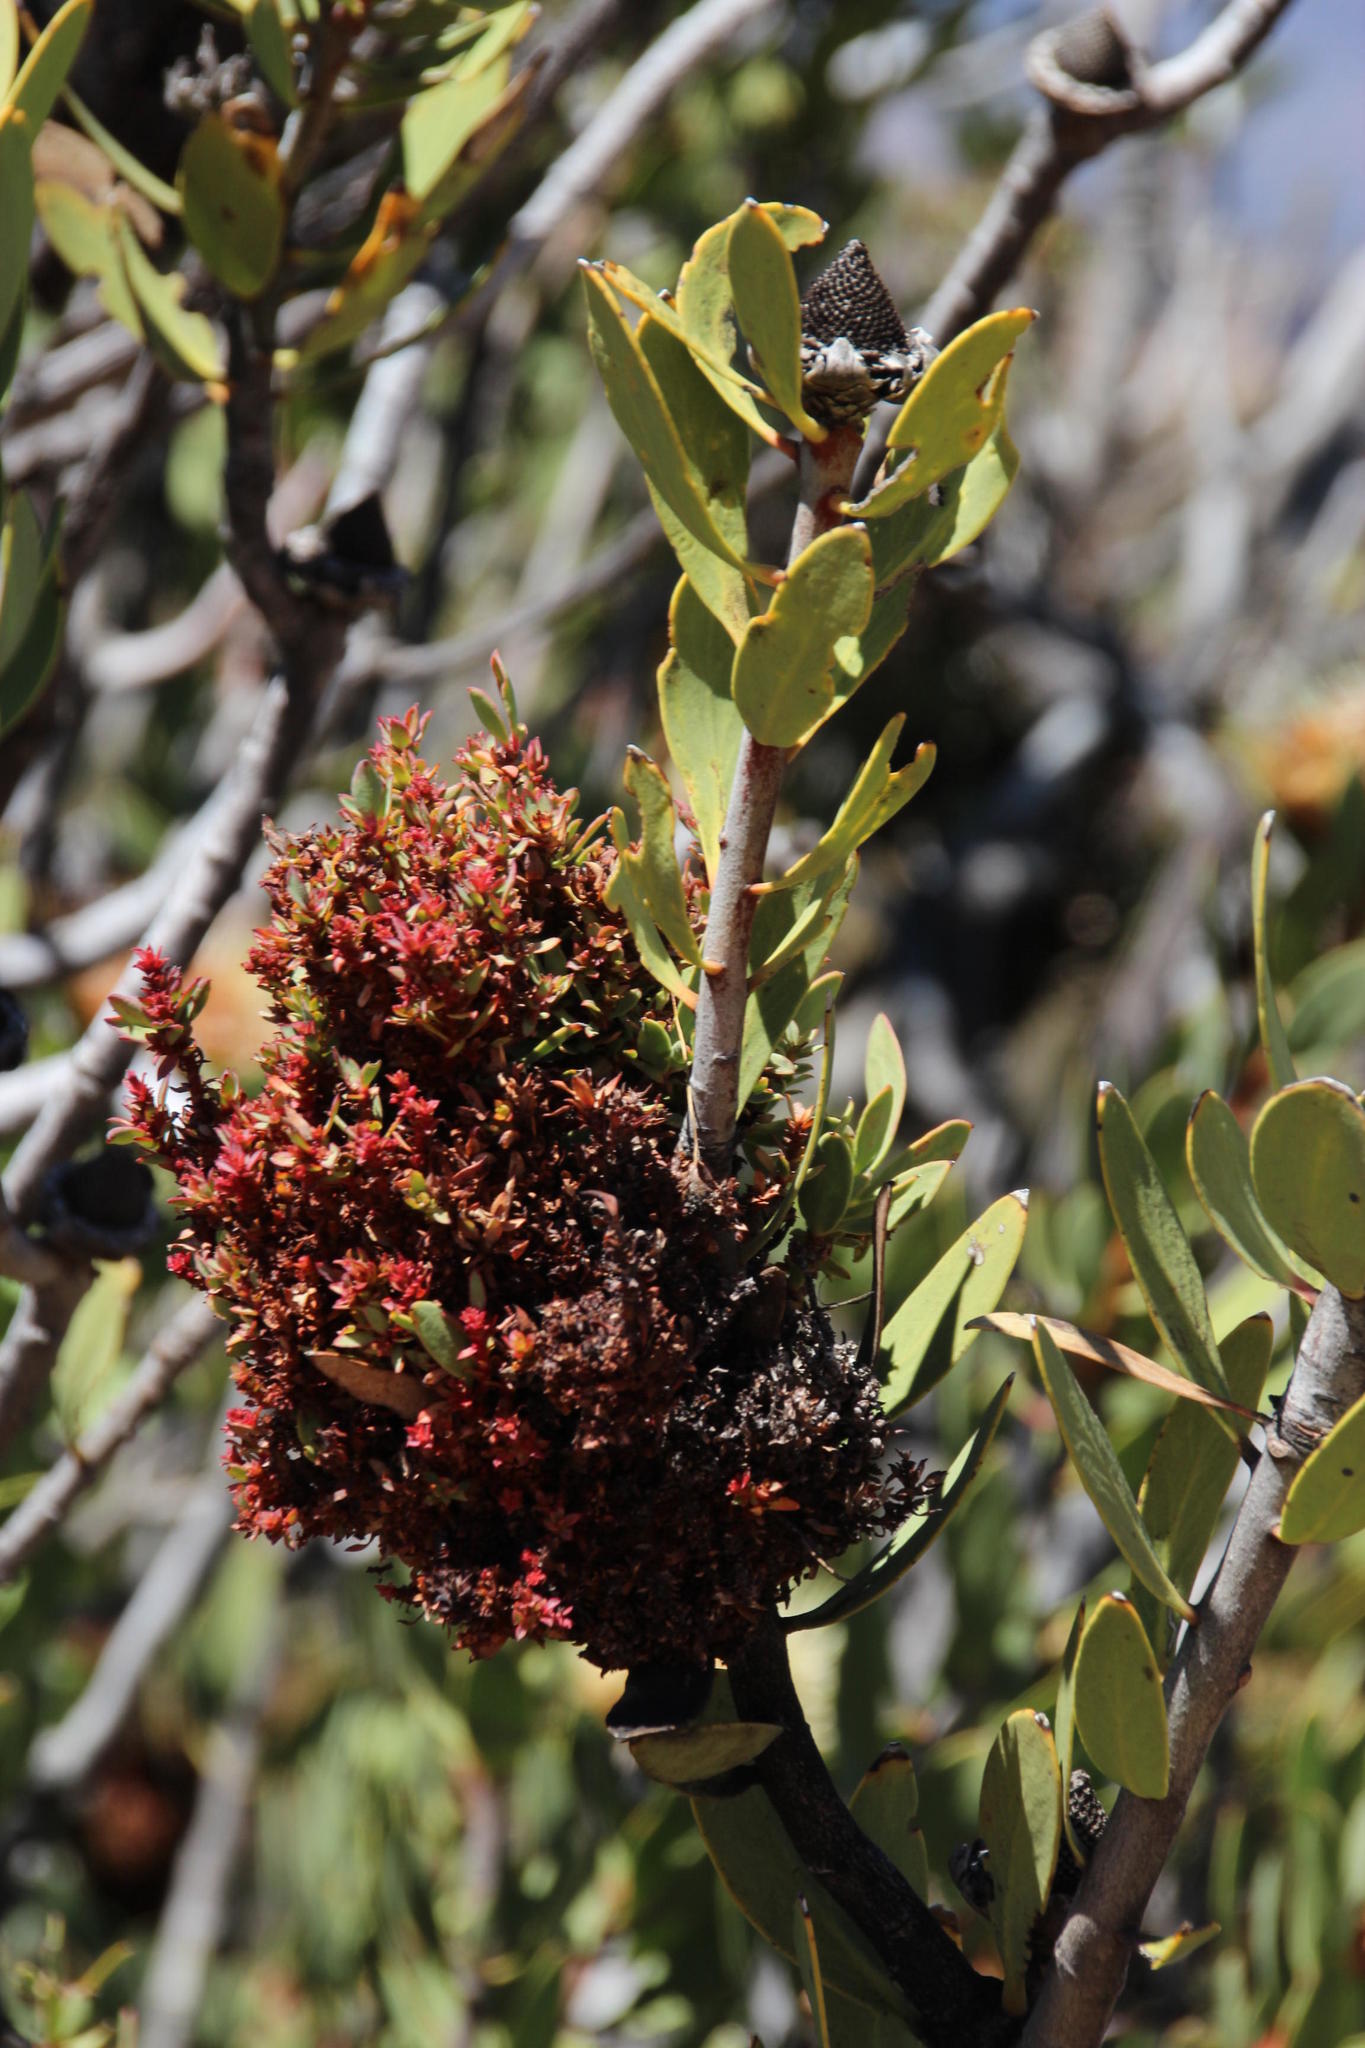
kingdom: Bacteria
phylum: Firmicutes
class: Bacilli
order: Acholeplasmatales
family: Acholeplasmataceae
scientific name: Acholeplasmataceae
